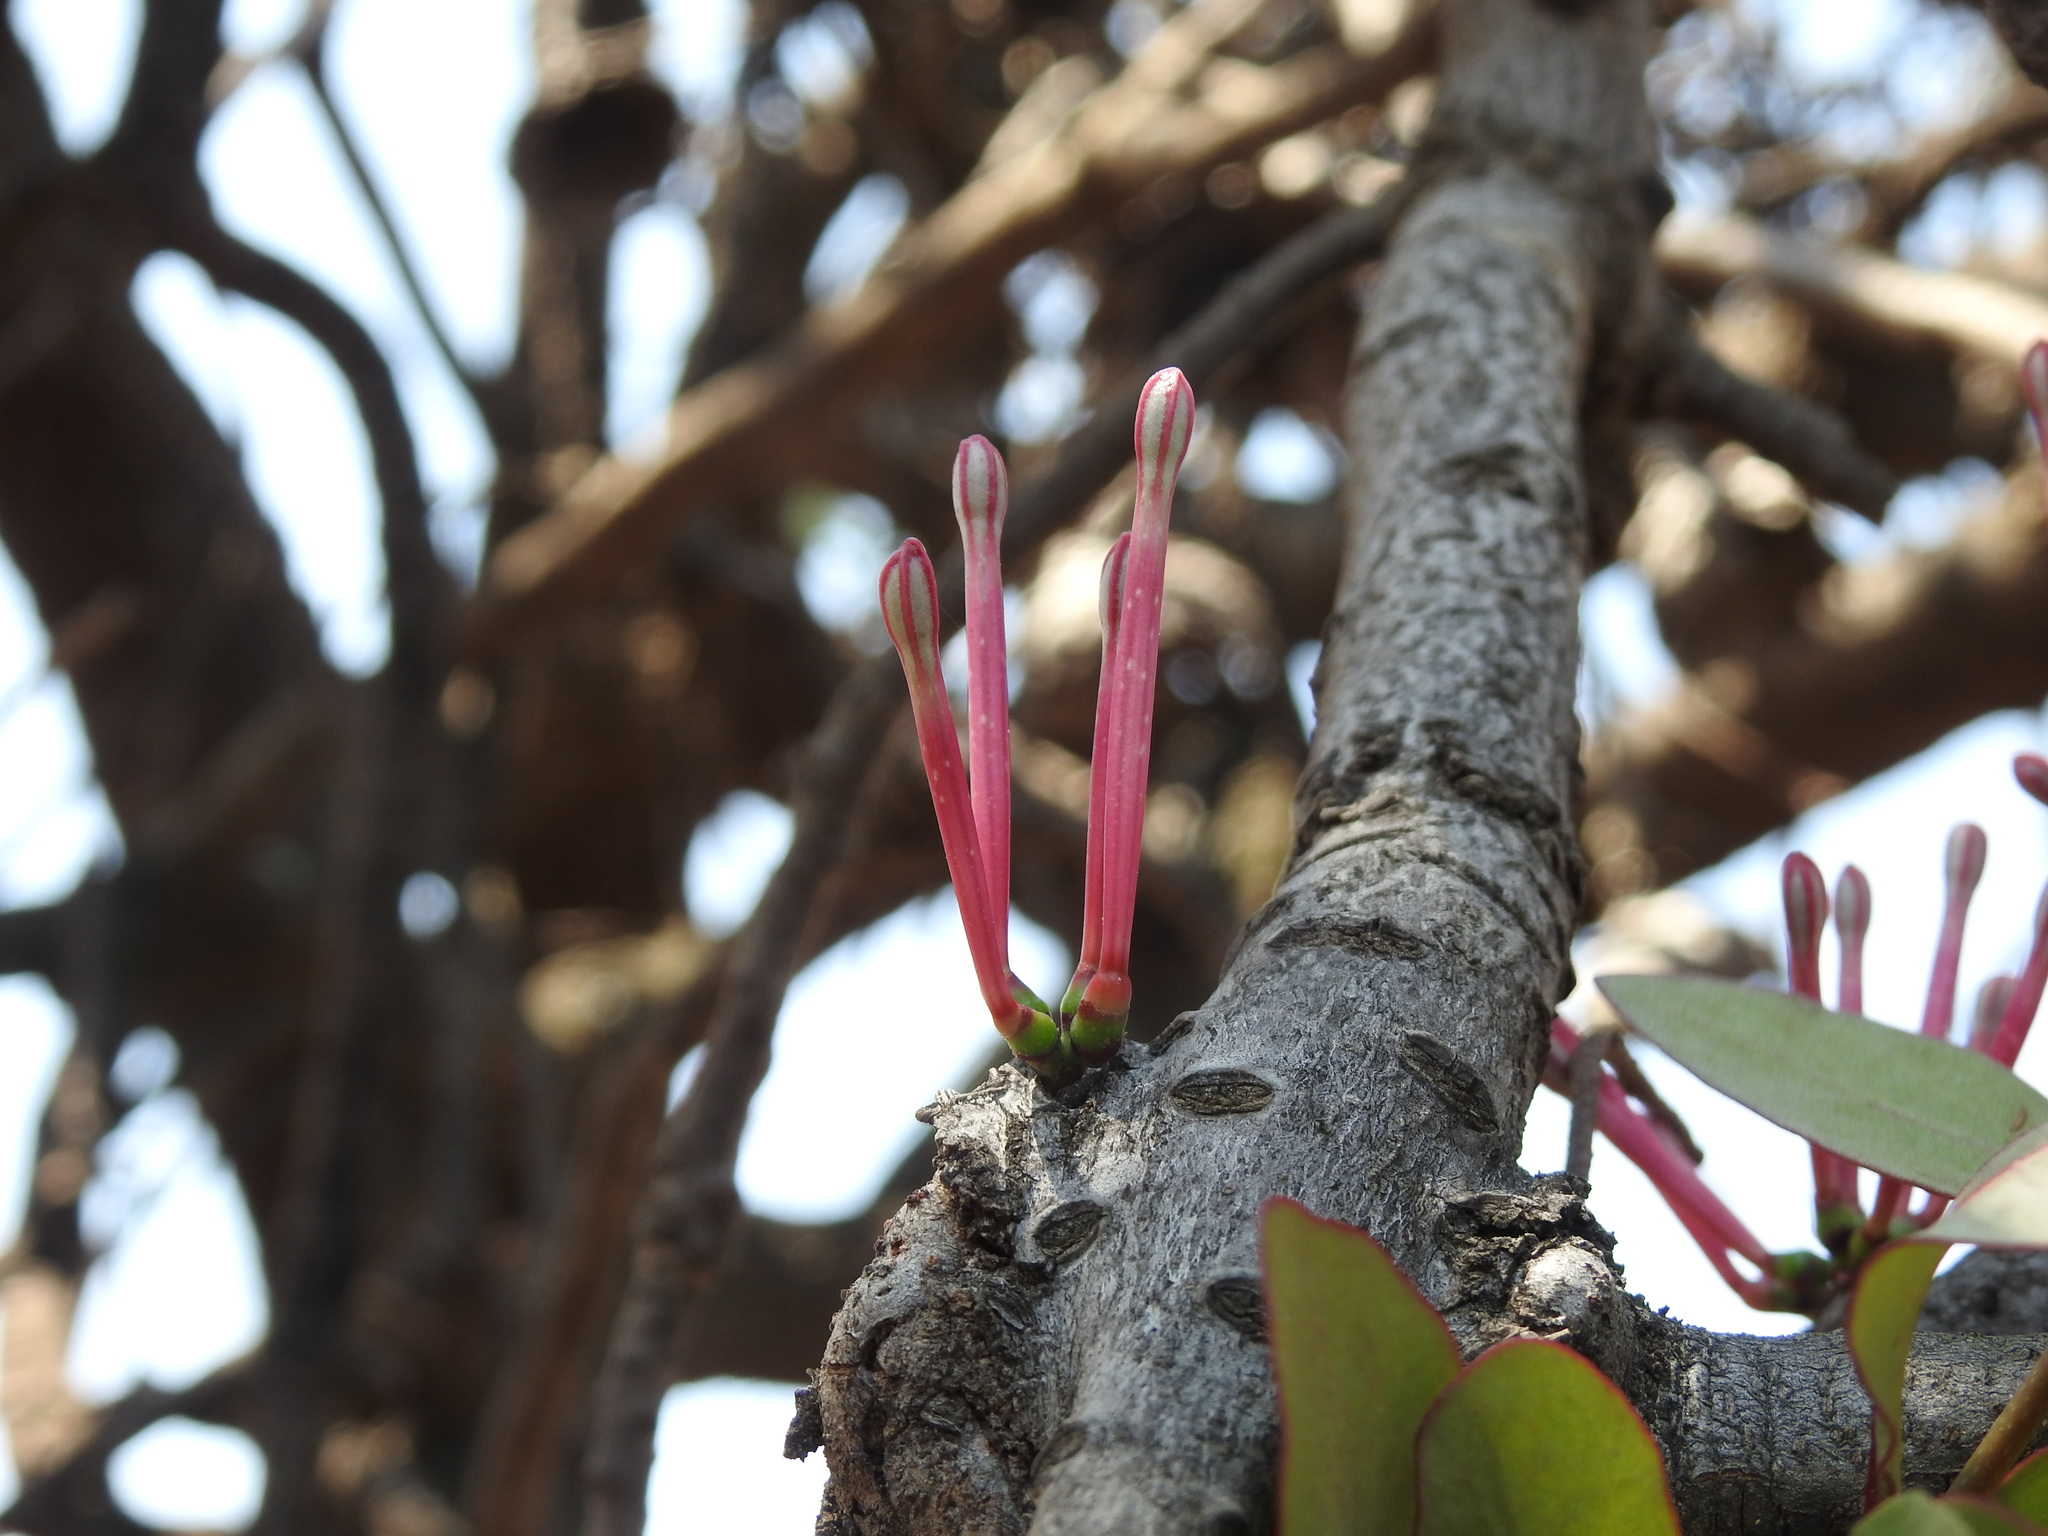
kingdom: Plantae
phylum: Tracheophyta
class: Magnoliopsida
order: Santalales
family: Loranthaceae
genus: Tapinanthus
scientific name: Tapinanthus rubromarginatus
